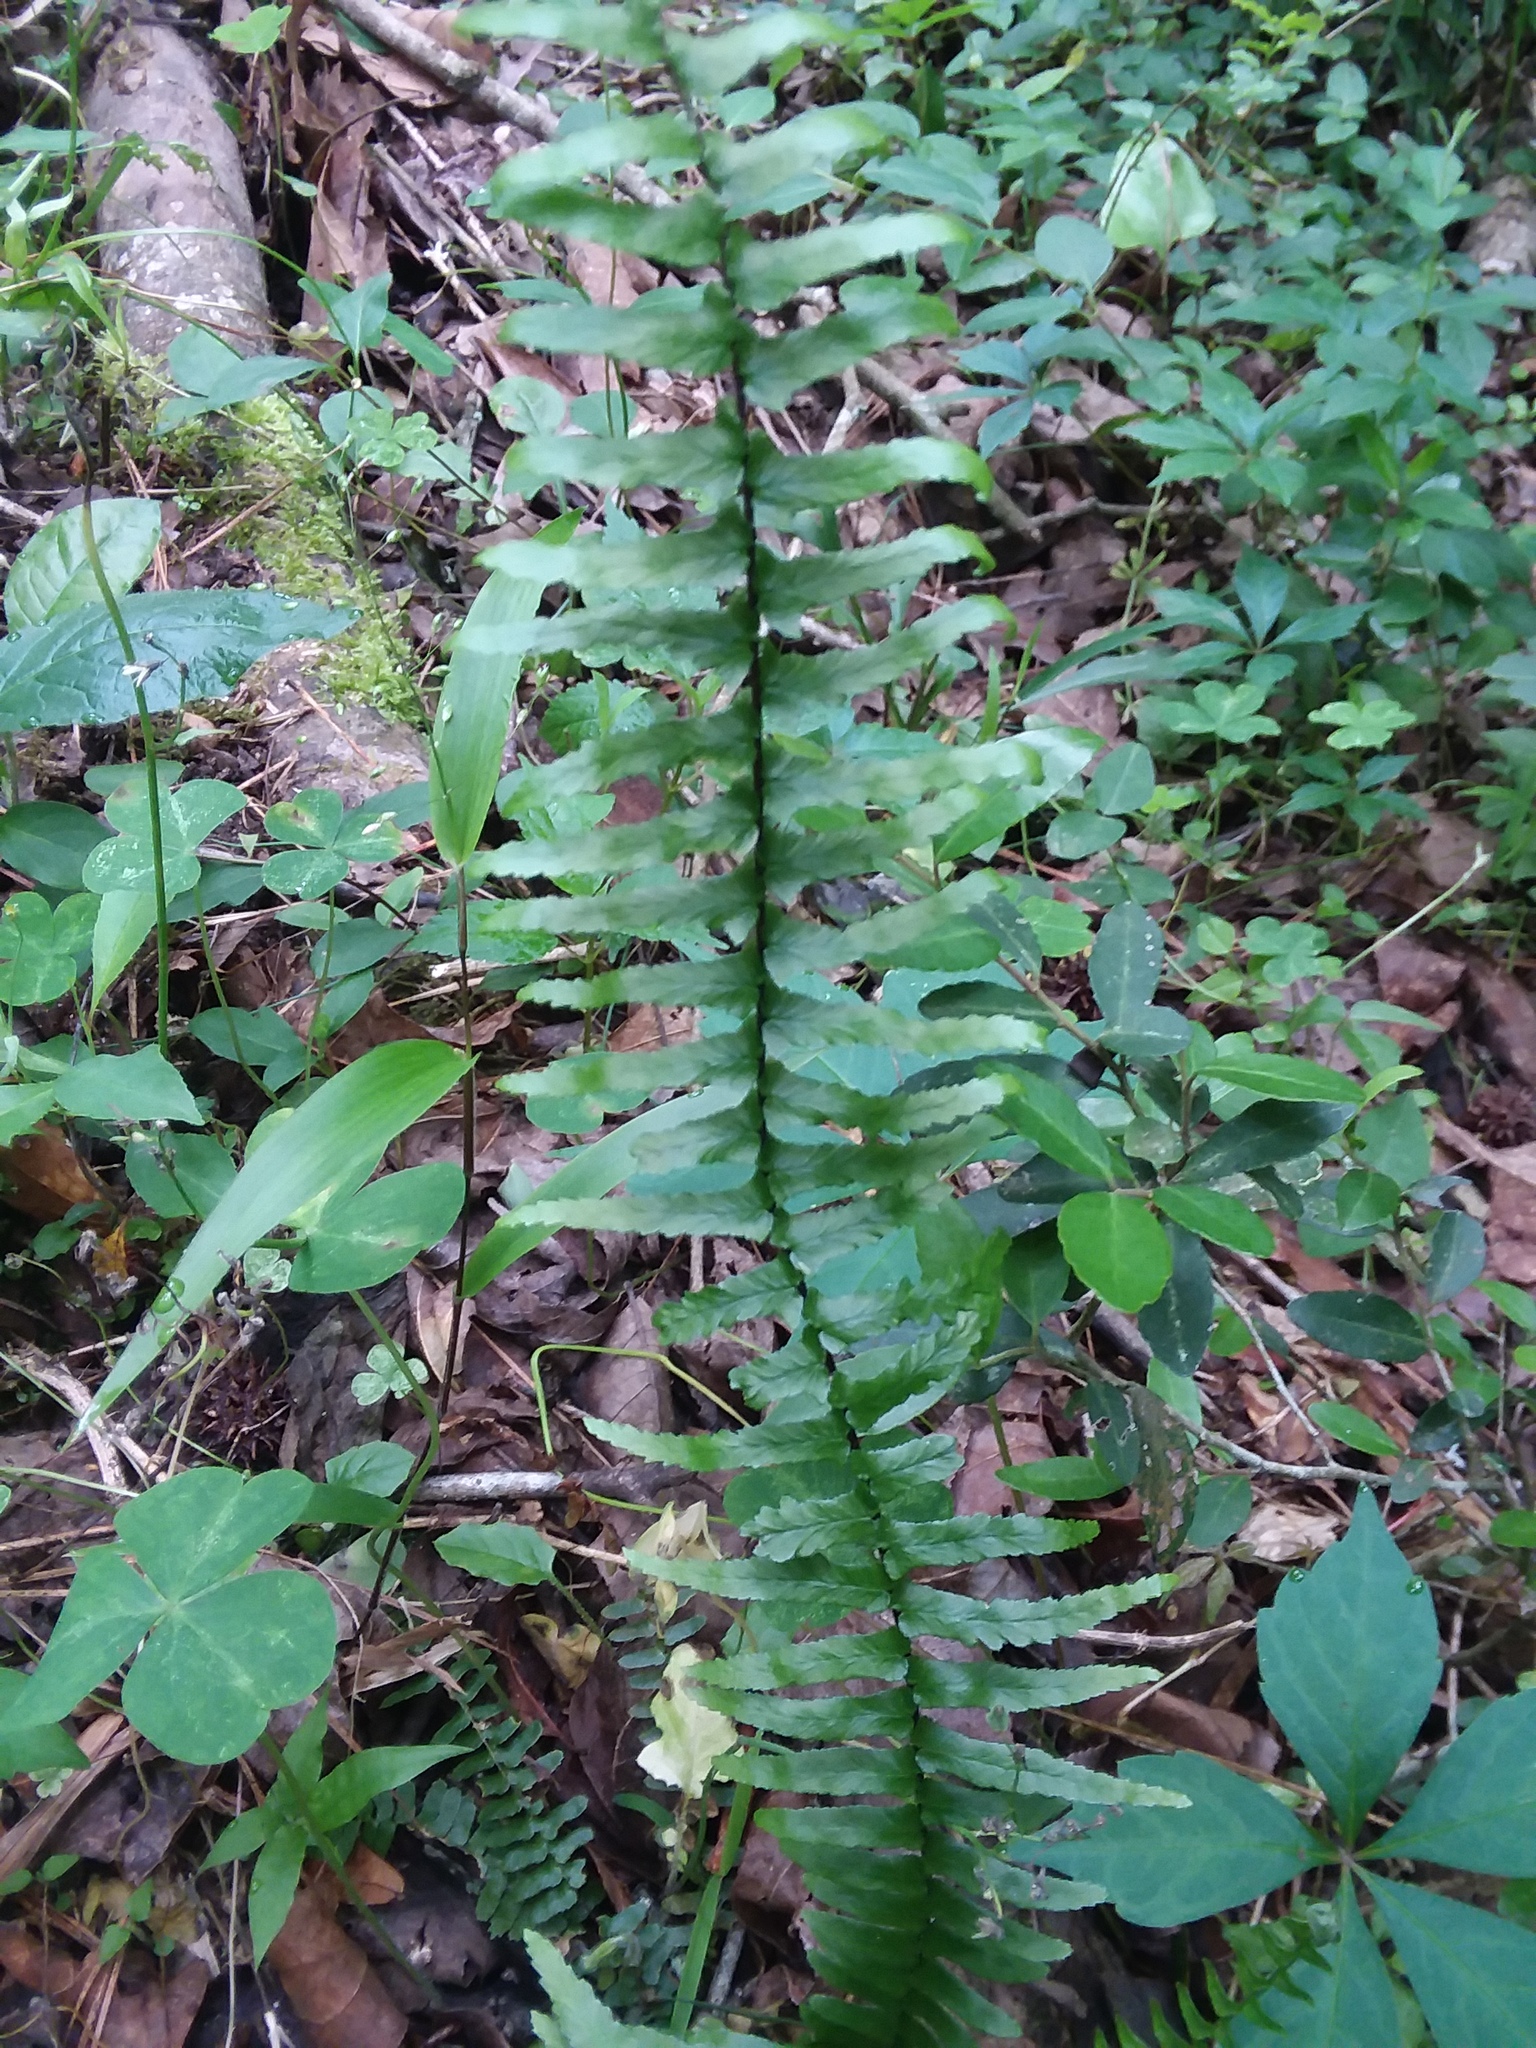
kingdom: Plantae
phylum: Tracheophyta
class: Polypodiopsida
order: Polypodiales
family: Aspleniaceae
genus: Asplenium
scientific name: Asplenium platyneuron
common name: Ebony spleenwort
